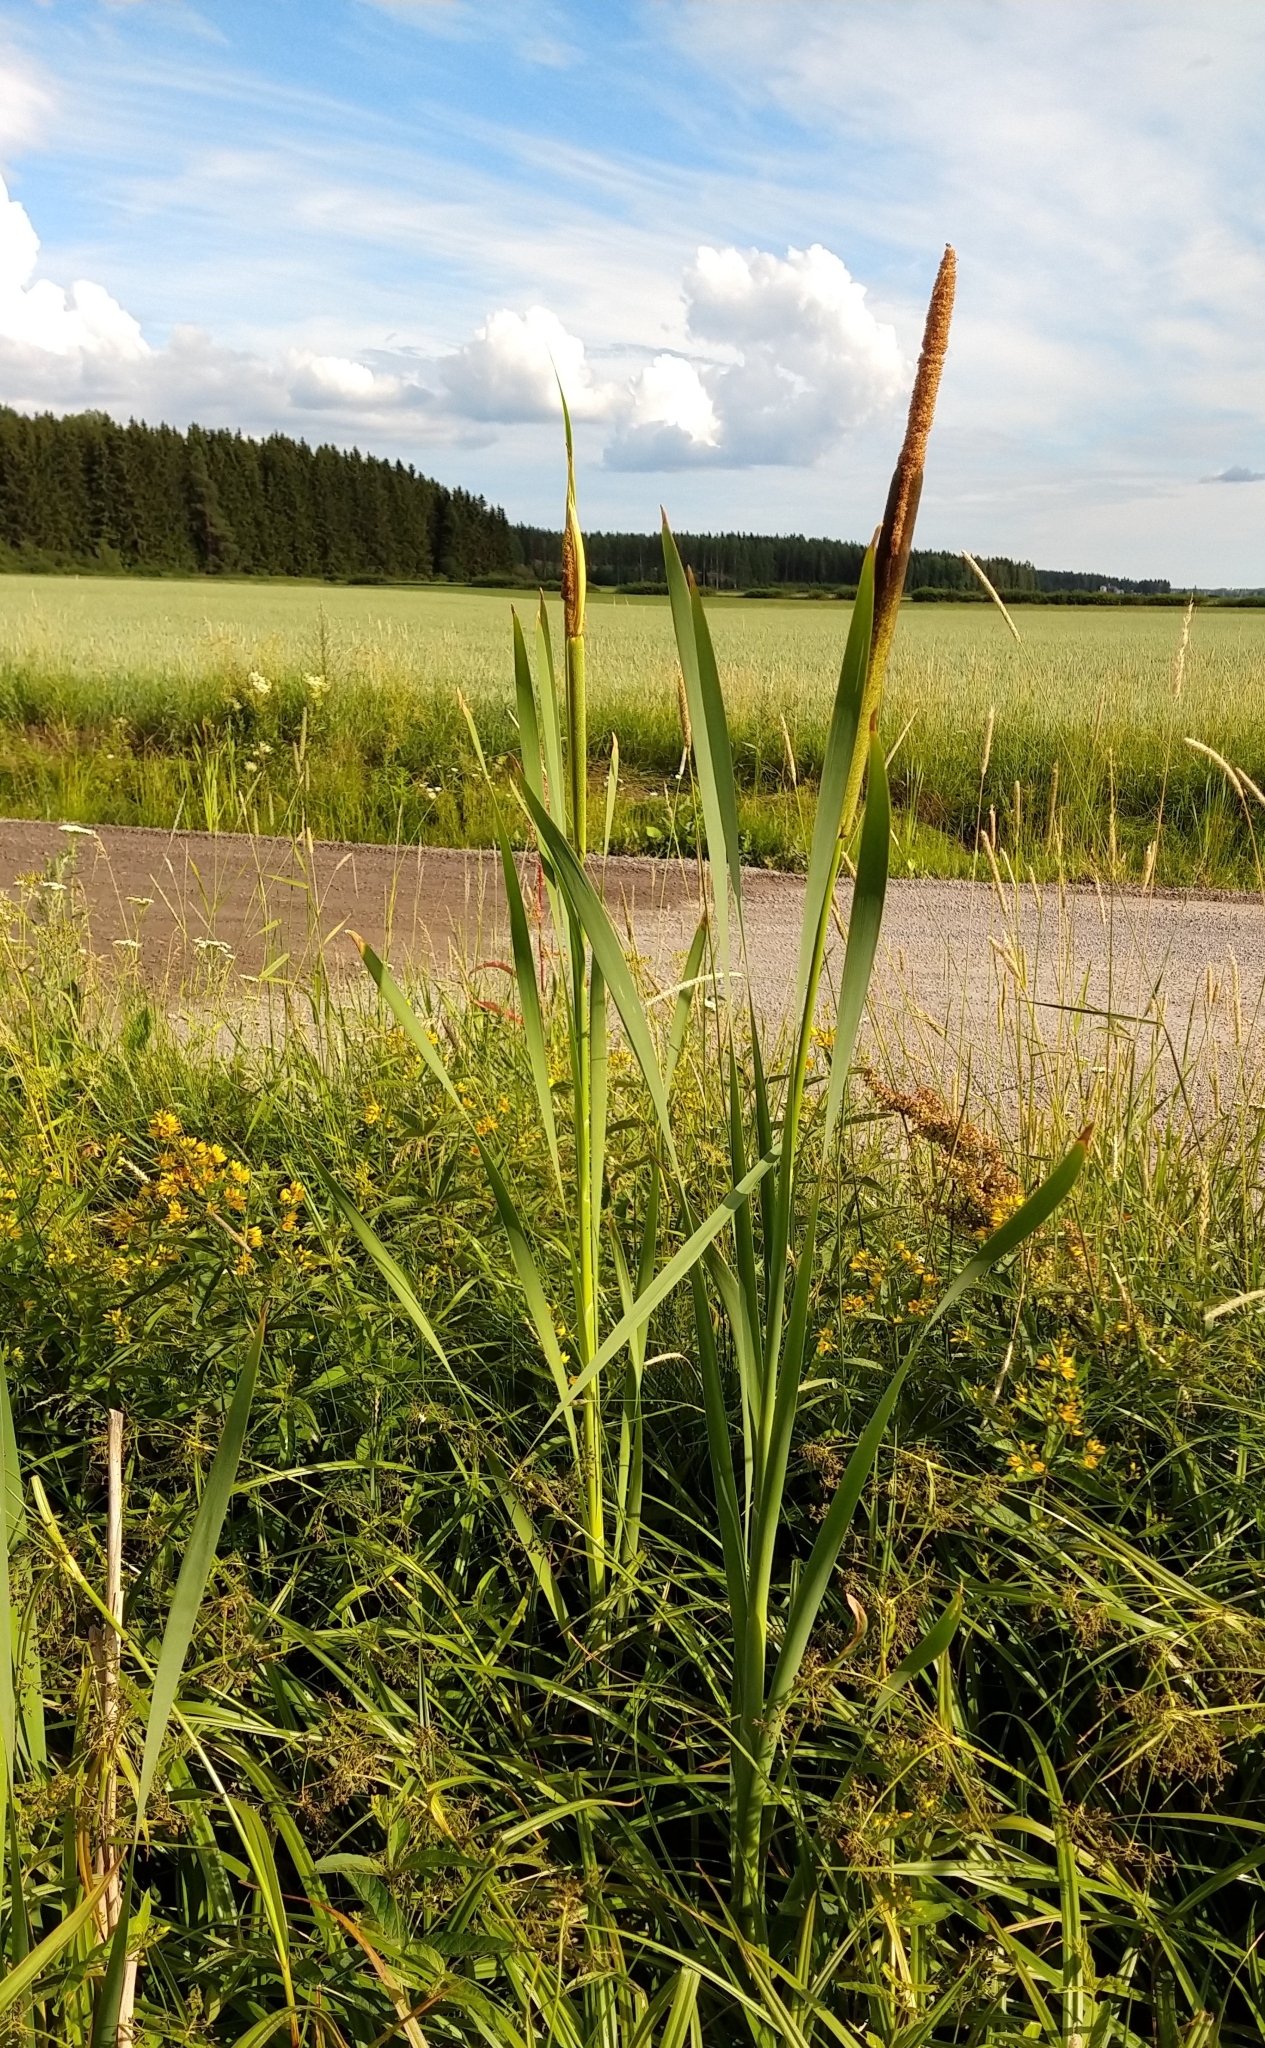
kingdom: Plantae
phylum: Tracheophyta
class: Liliopsida
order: Poales
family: Typhaceae
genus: Typha
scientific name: Typha latifolia
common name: Broadleaf cattail
